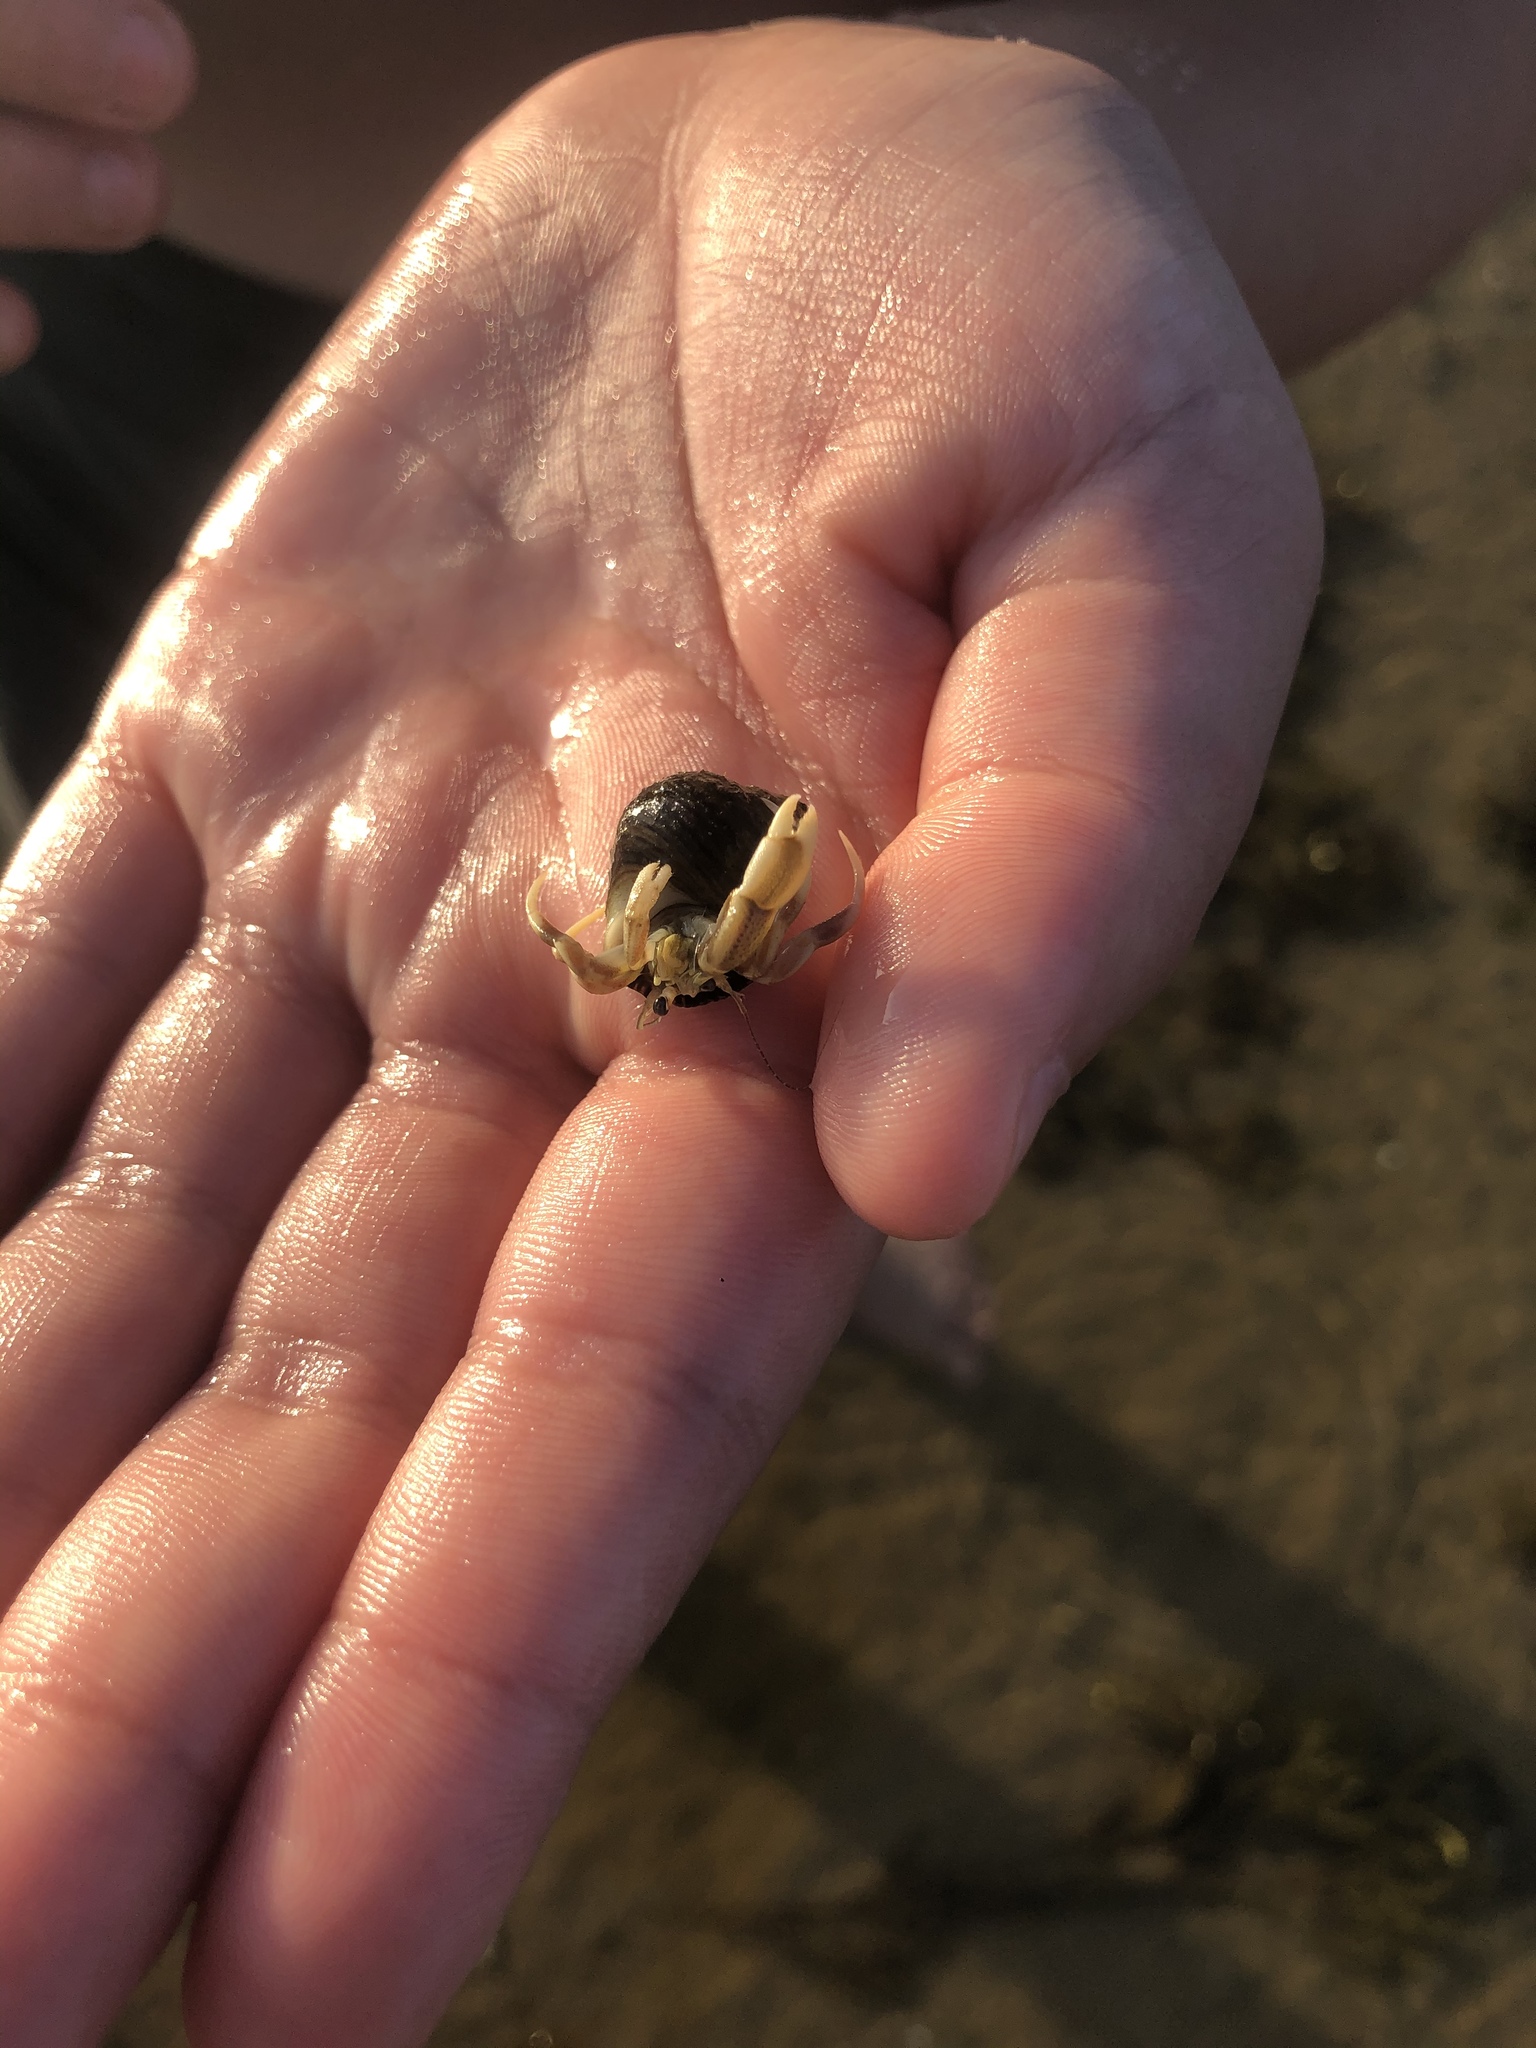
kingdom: Animalia
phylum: Arthropoda
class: Malacostraca
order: Decapoda
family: Paguridae
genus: Pagurus
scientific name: Pagurus longicarpus
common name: Long-armed hermit crab
